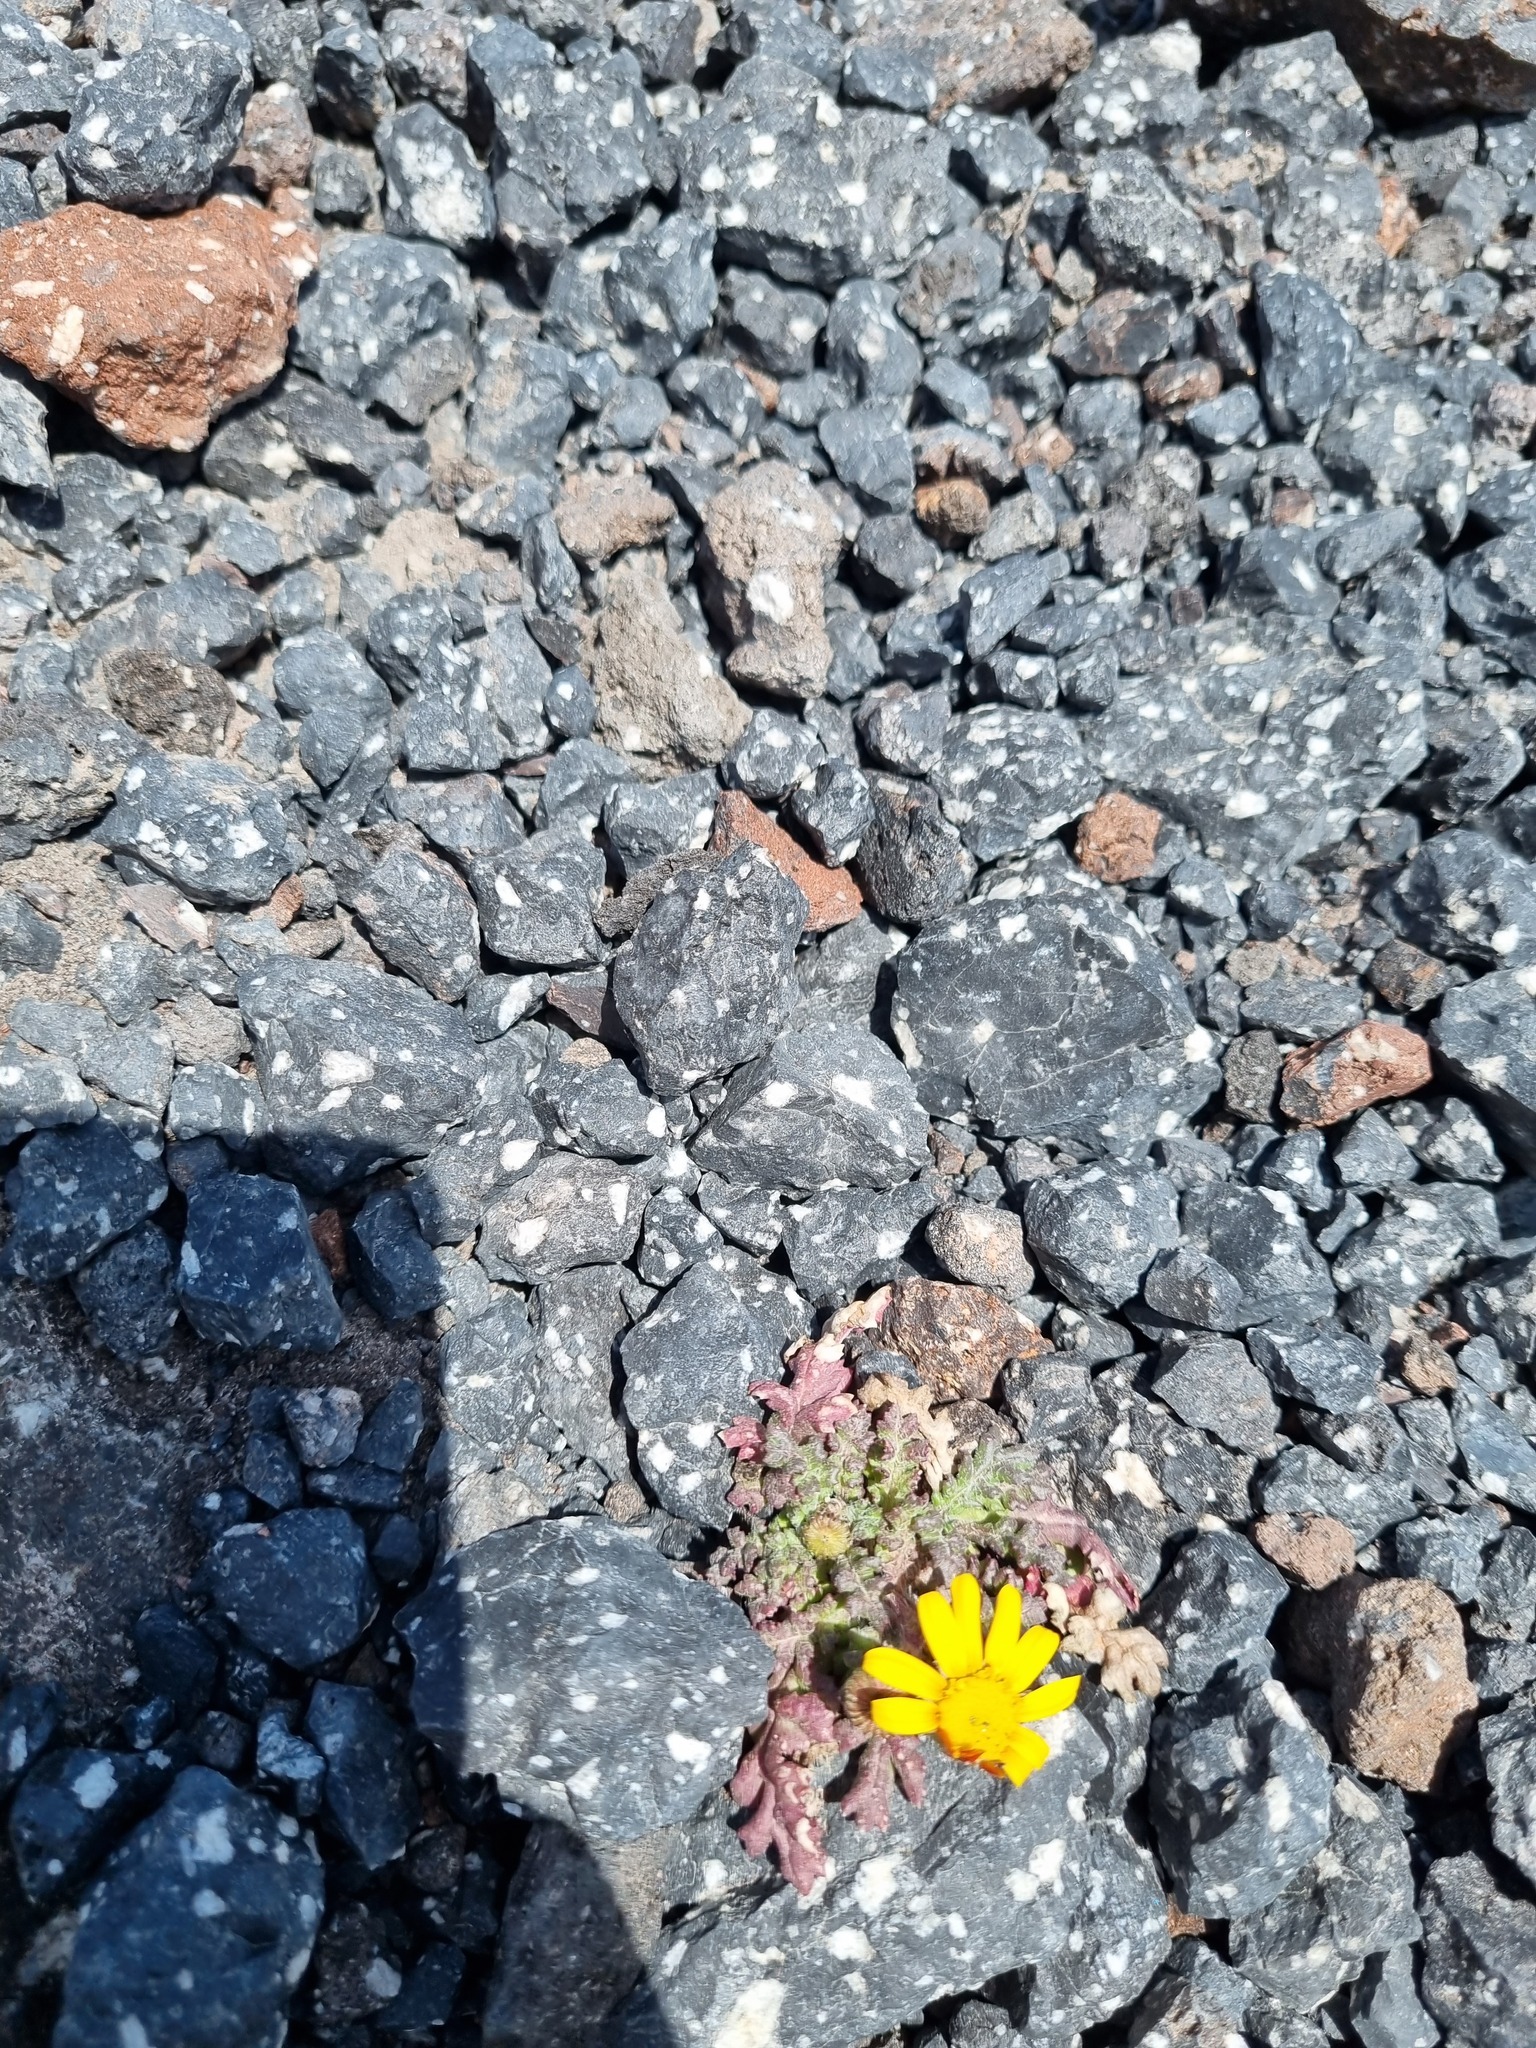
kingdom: Plantae
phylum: Tracheophyta
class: Magnoliopsida
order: Asterales
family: Asteraceae
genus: Senecio
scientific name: Senecio leucanthemifolius
